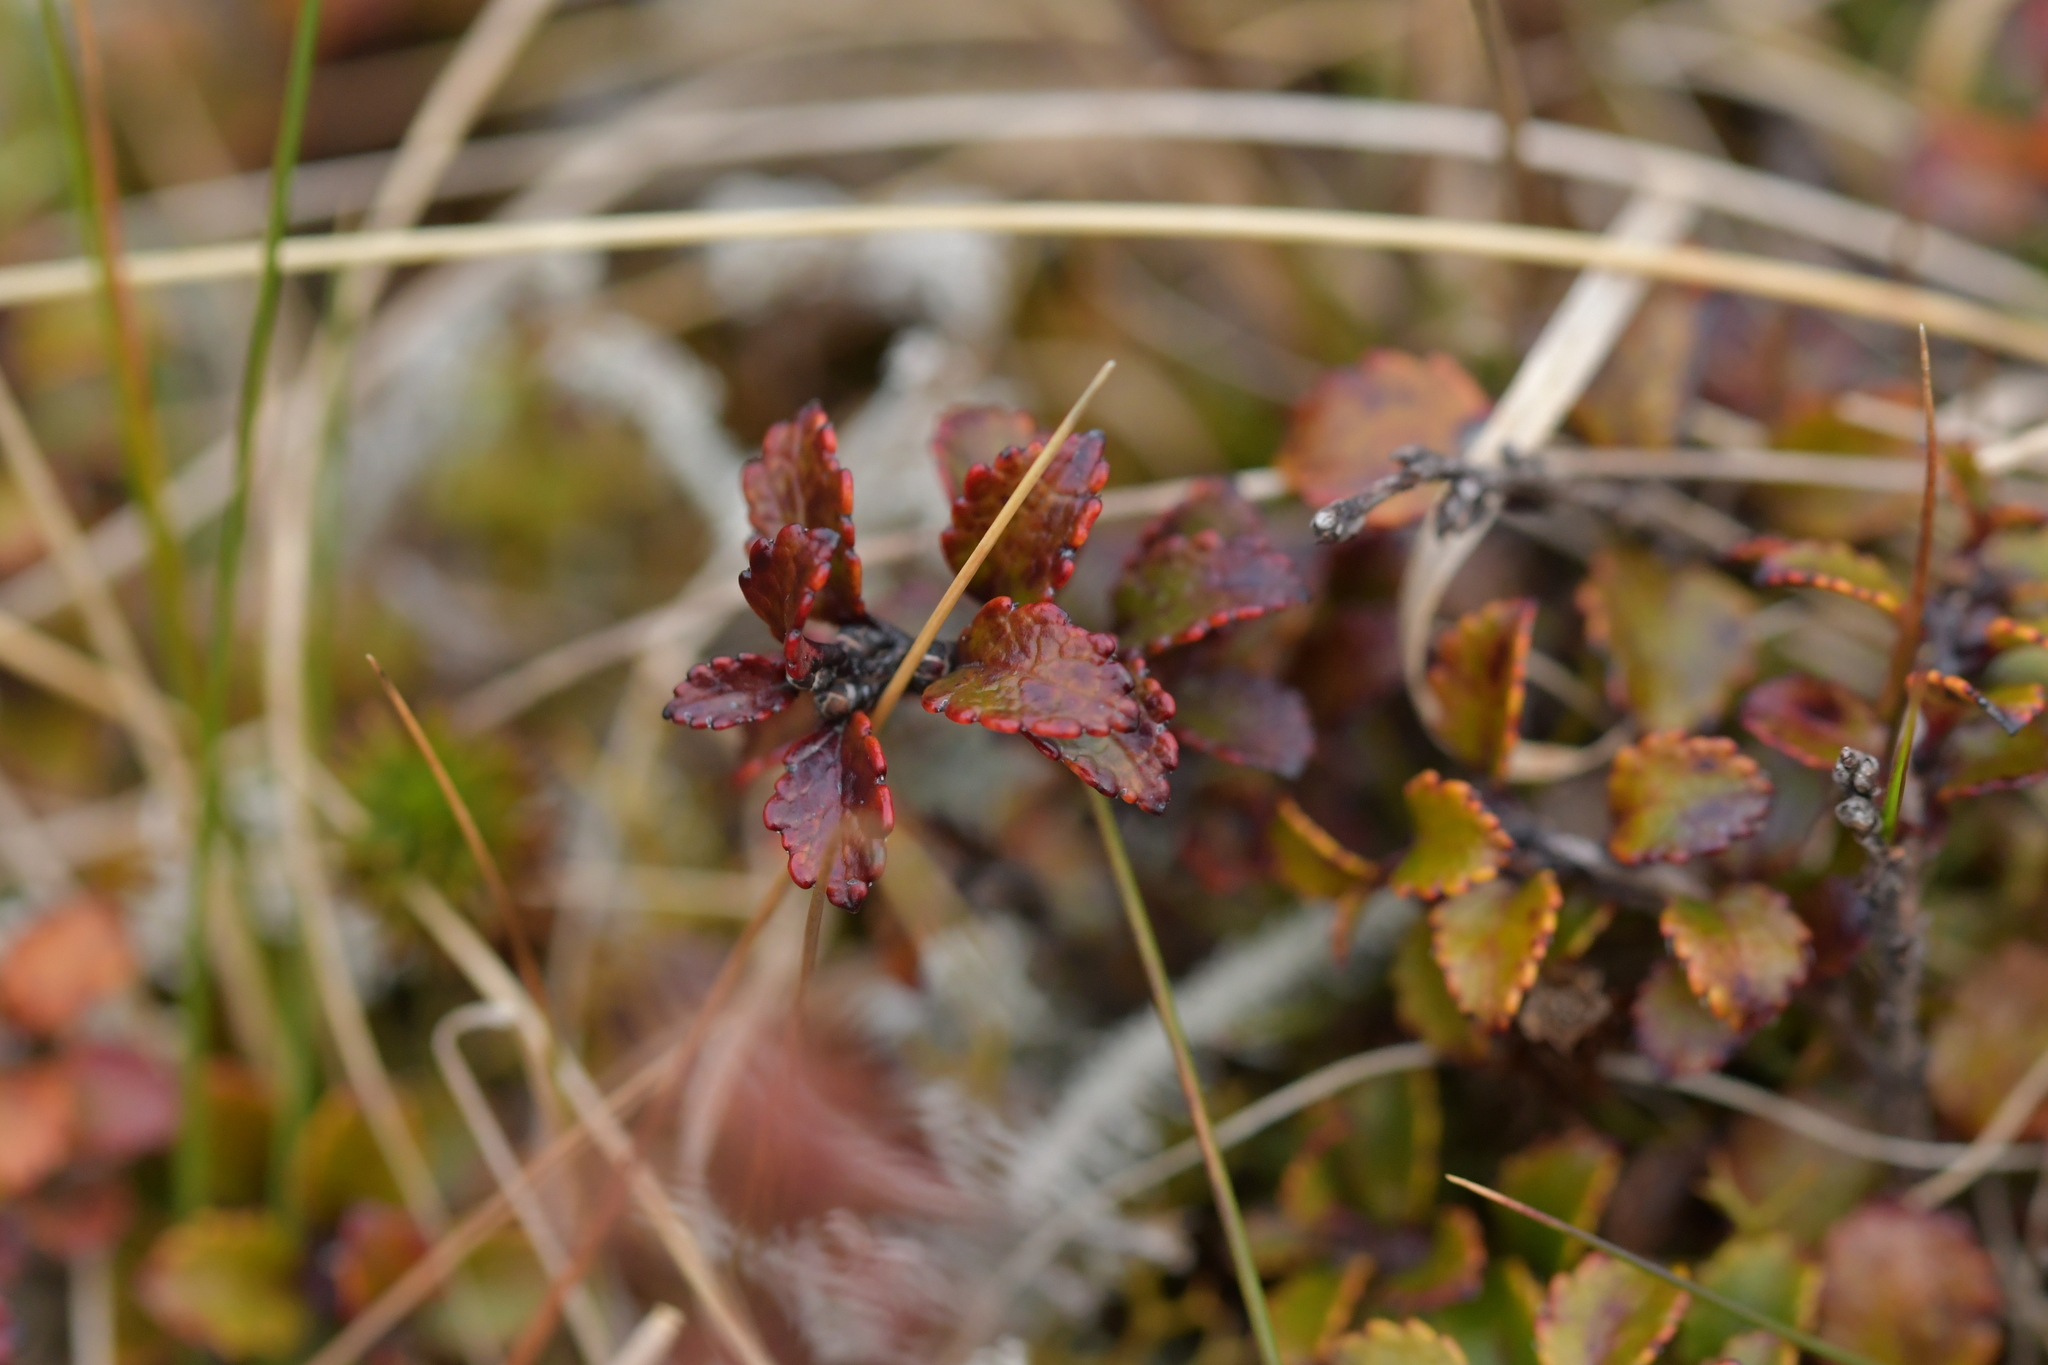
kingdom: Plantae
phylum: Tracheophyta
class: Magnoliopsida
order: Ericales
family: Ericaceae
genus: Gaultheria
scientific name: Gaultheria depressa
